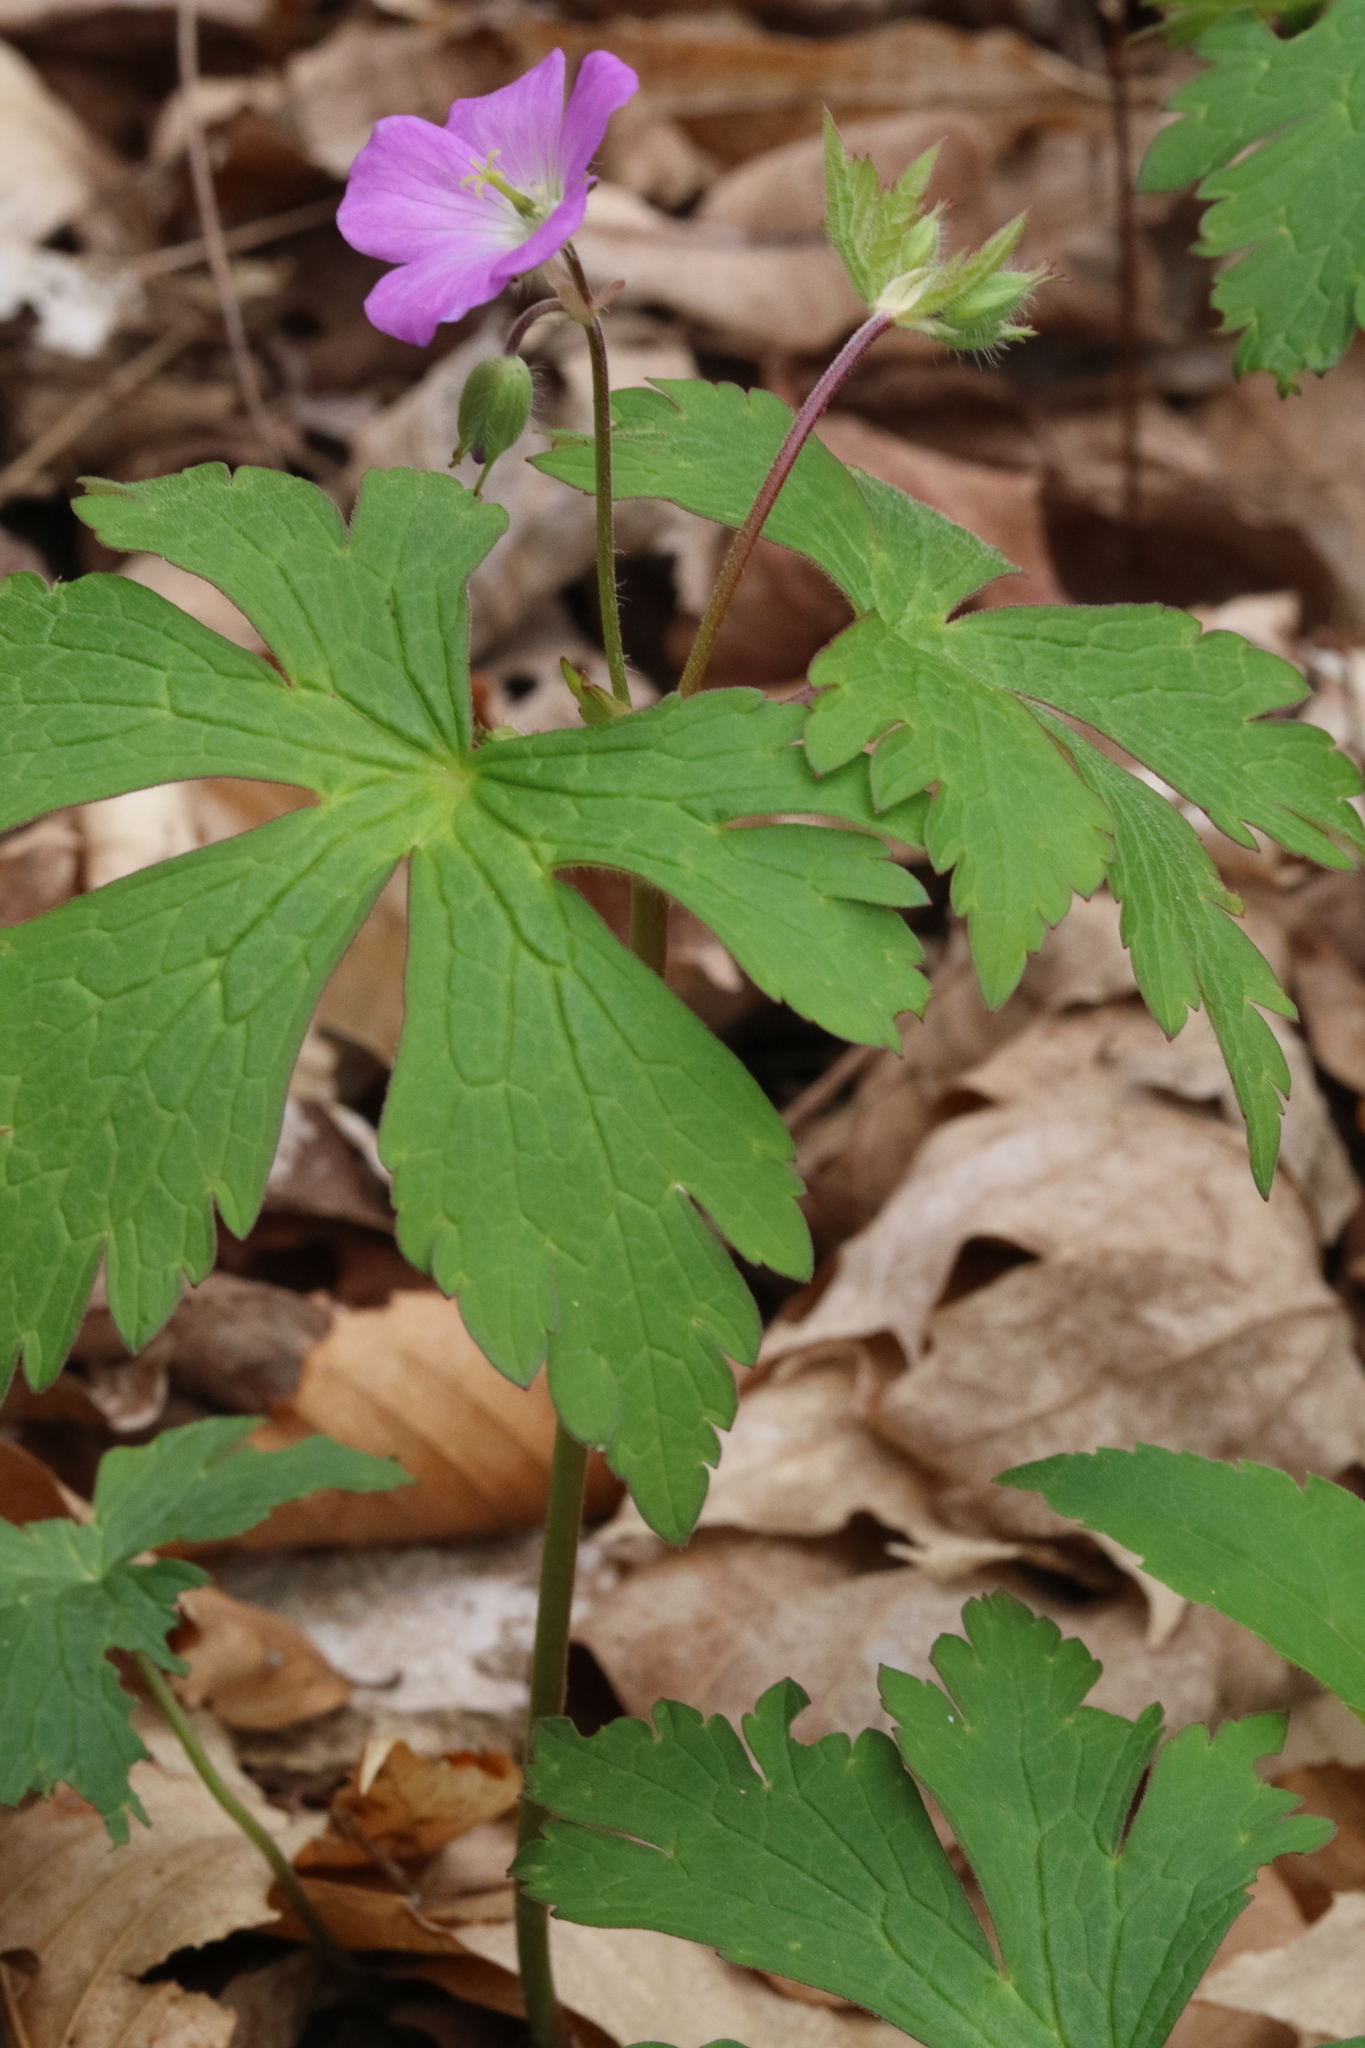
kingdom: Plantae
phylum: Tracheophyta
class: Magnoliopsida
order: Geraniales
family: Geraniaceae
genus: Geranium
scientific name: Geranium maculatum
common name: Spotted geranium
